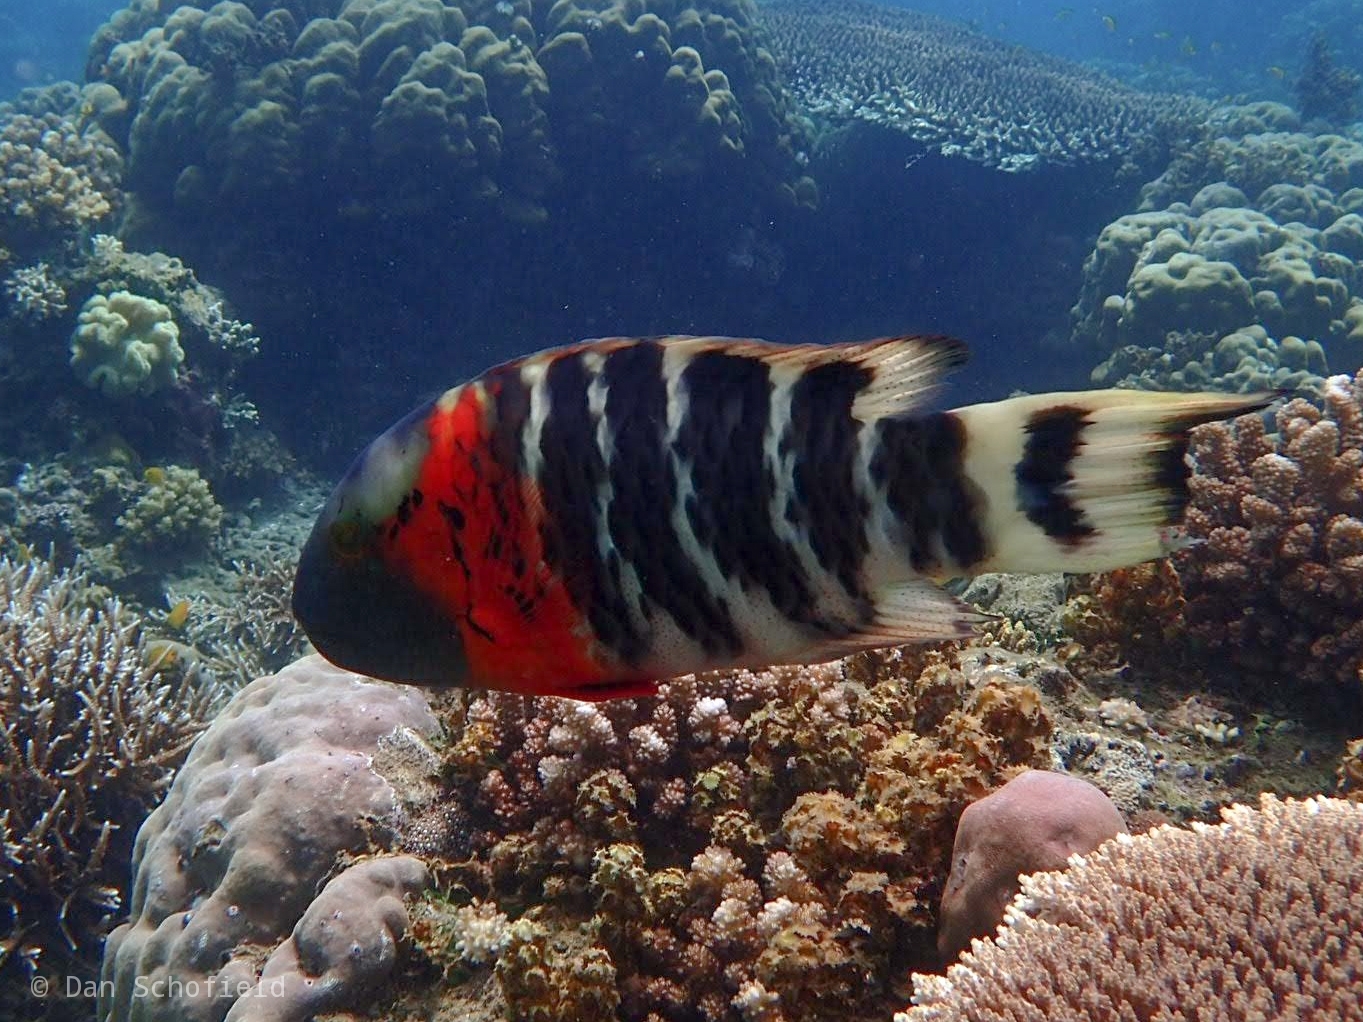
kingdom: Animalia
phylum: Chordata
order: Perciformes
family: Labridae
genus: Cheilinus
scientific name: Cheilinus fasciatus
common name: Red-breasted wrasse
